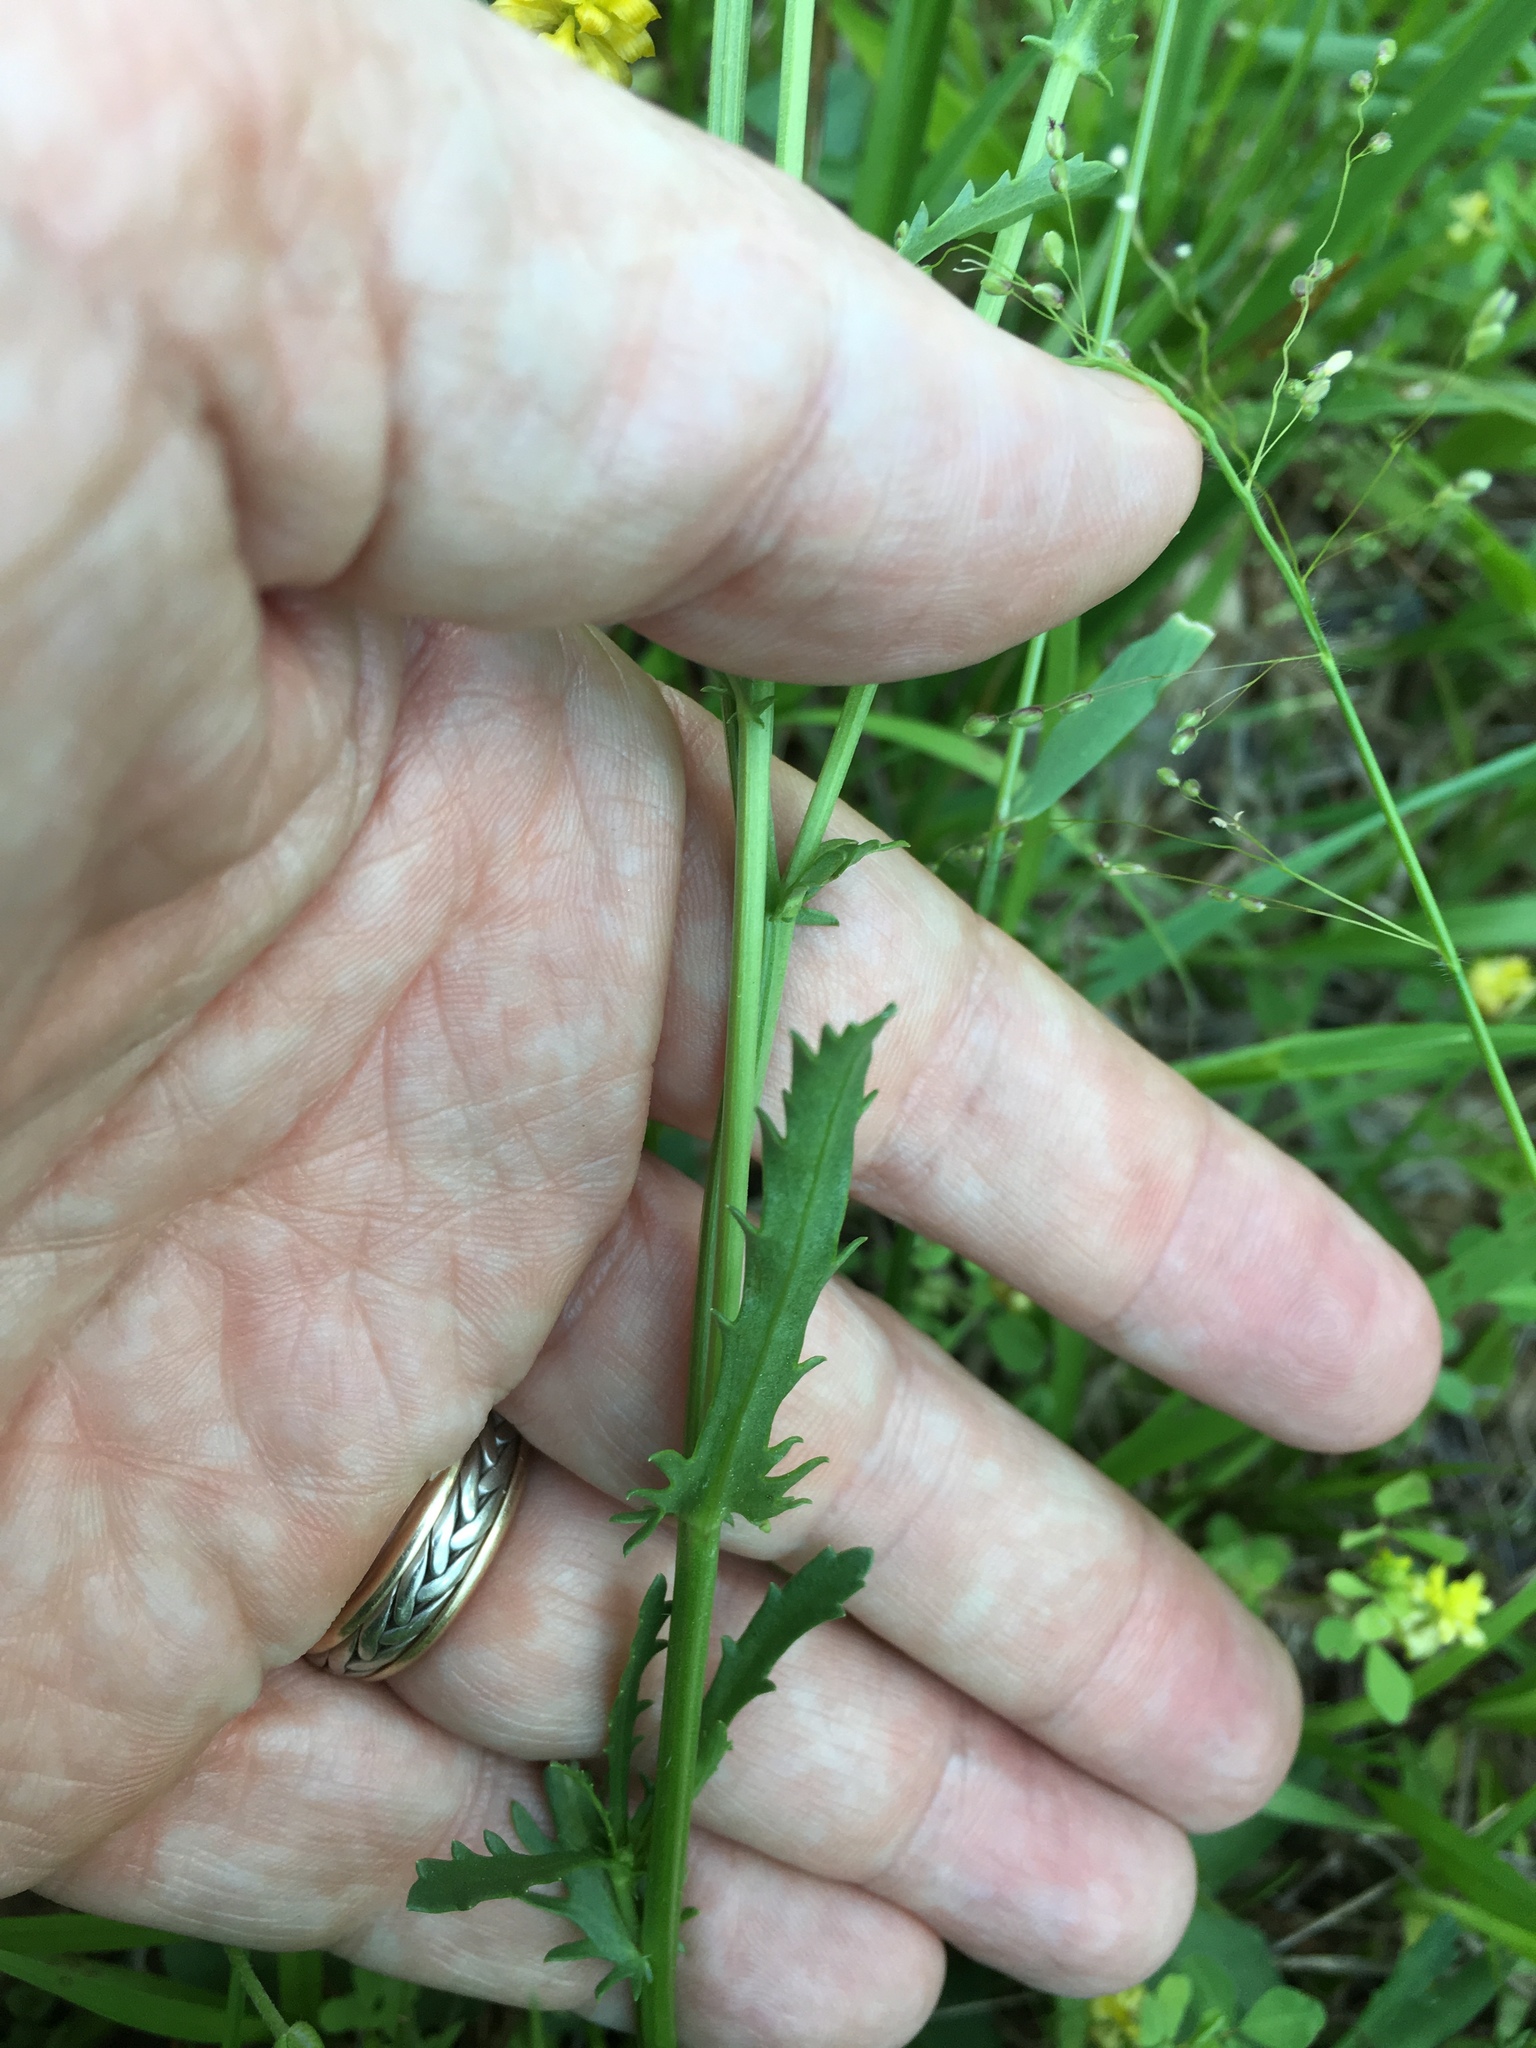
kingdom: Plantae
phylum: Tracheophyta
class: Magnoliopsida
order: Asterales
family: Asteraceae
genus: Leucanthemum
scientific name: Leucanthemum vulgare
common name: Oxeye daisy
